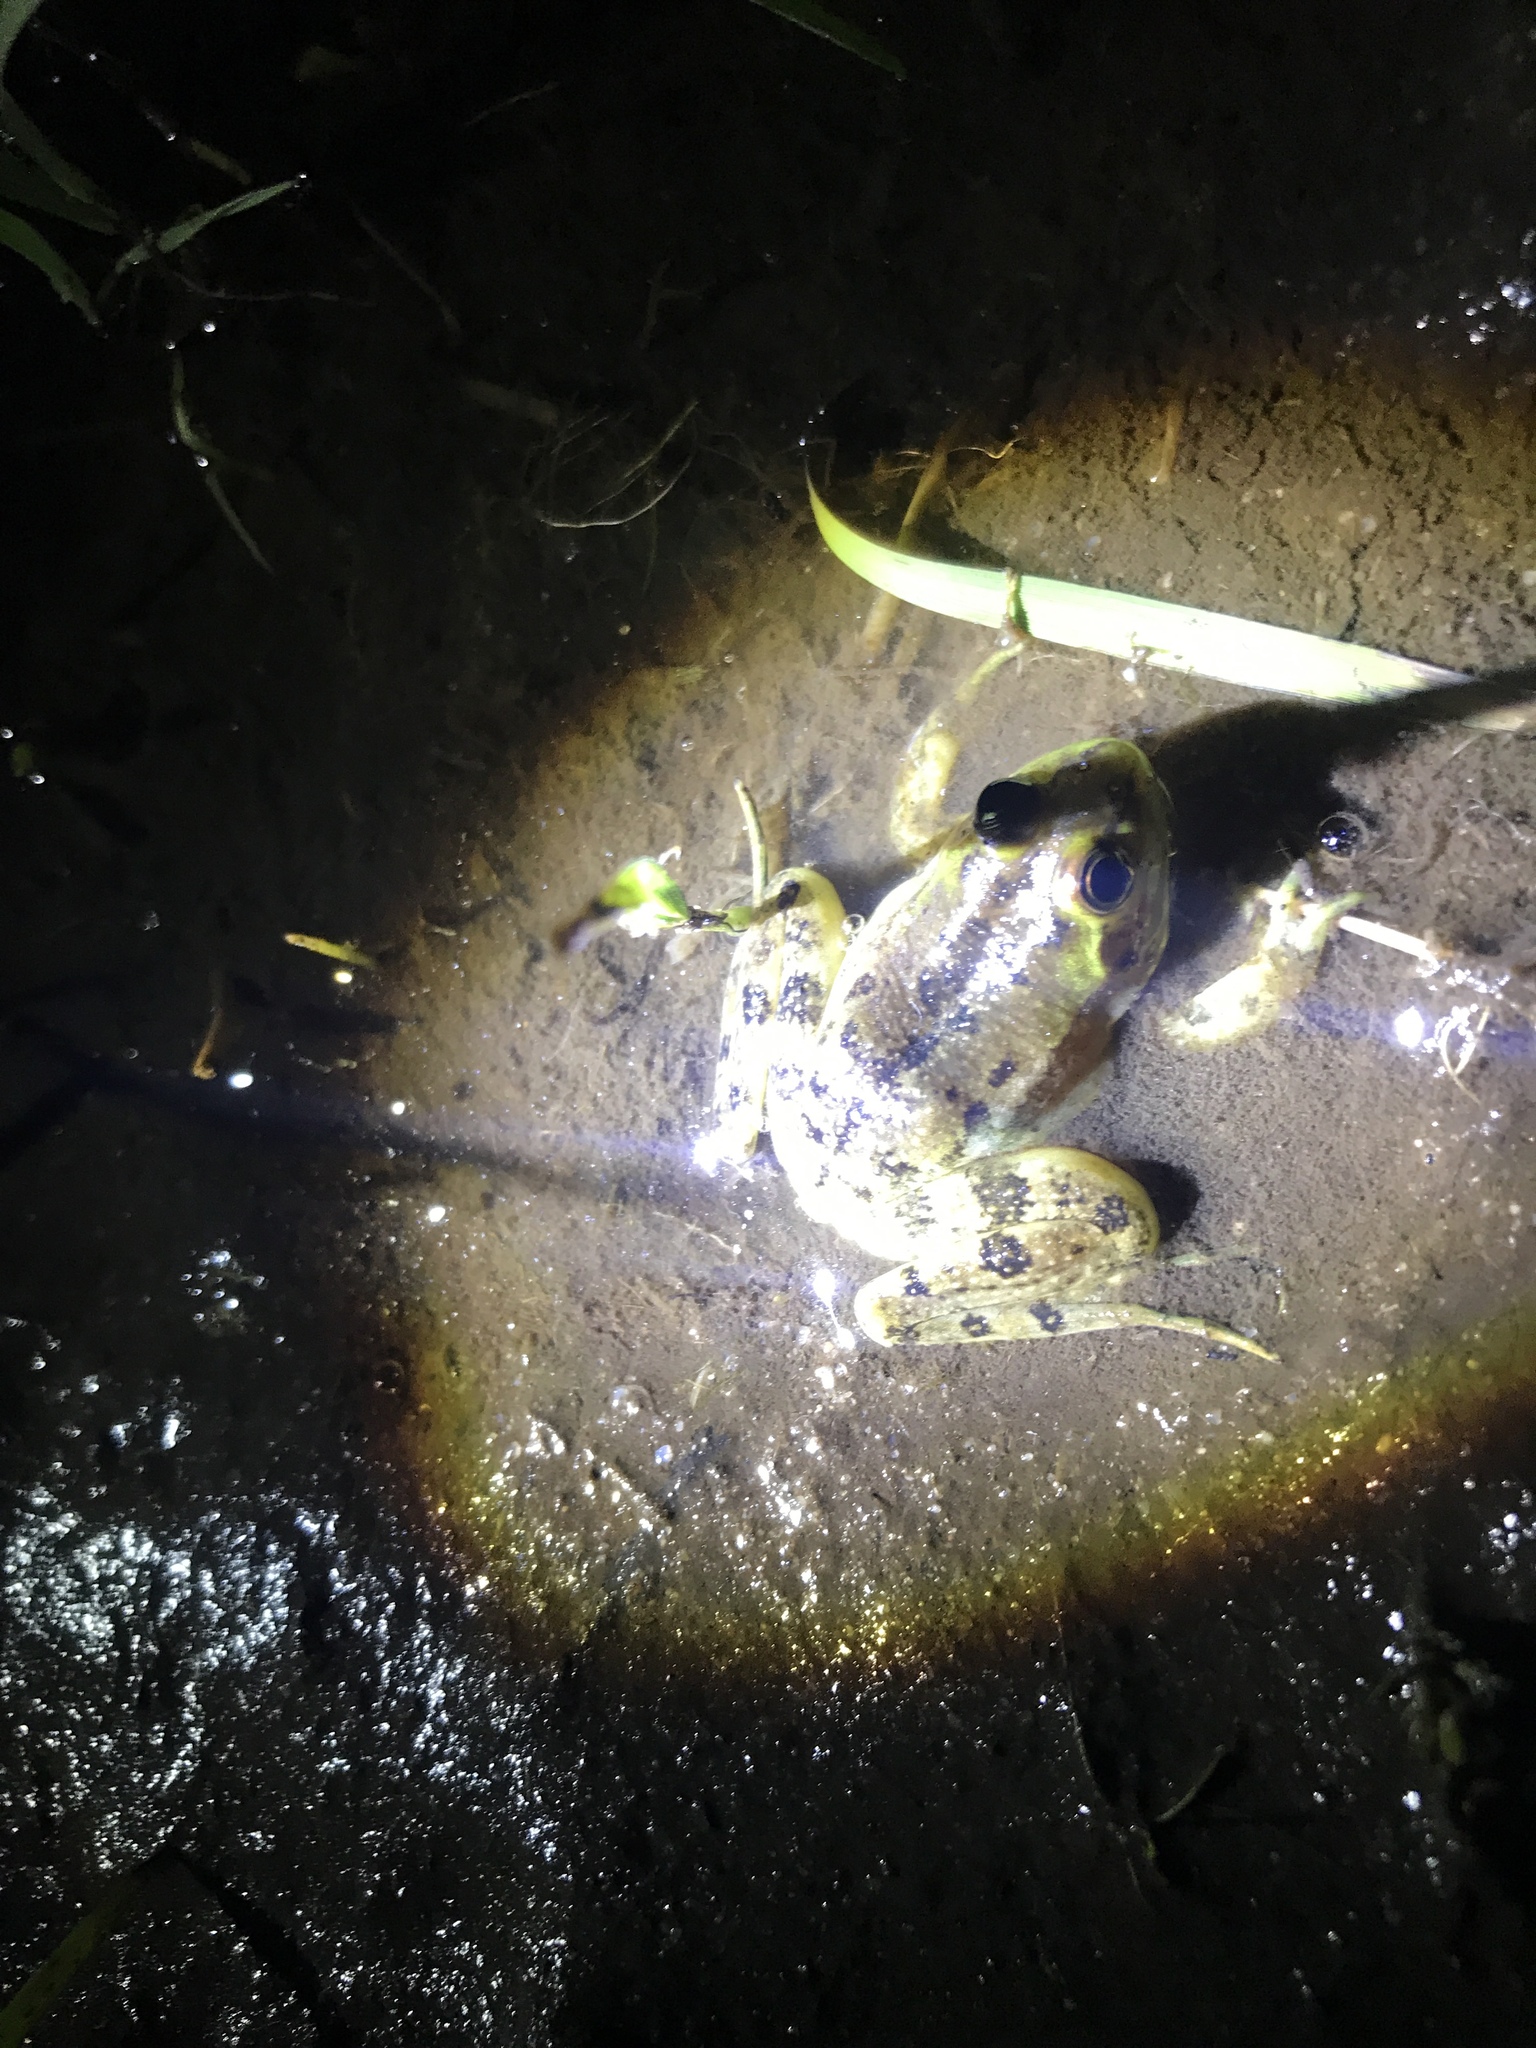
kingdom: Animalia
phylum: Chordata
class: Amphibia
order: Anura
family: Hylidae
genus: Pseudis
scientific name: Pseudis minuta
